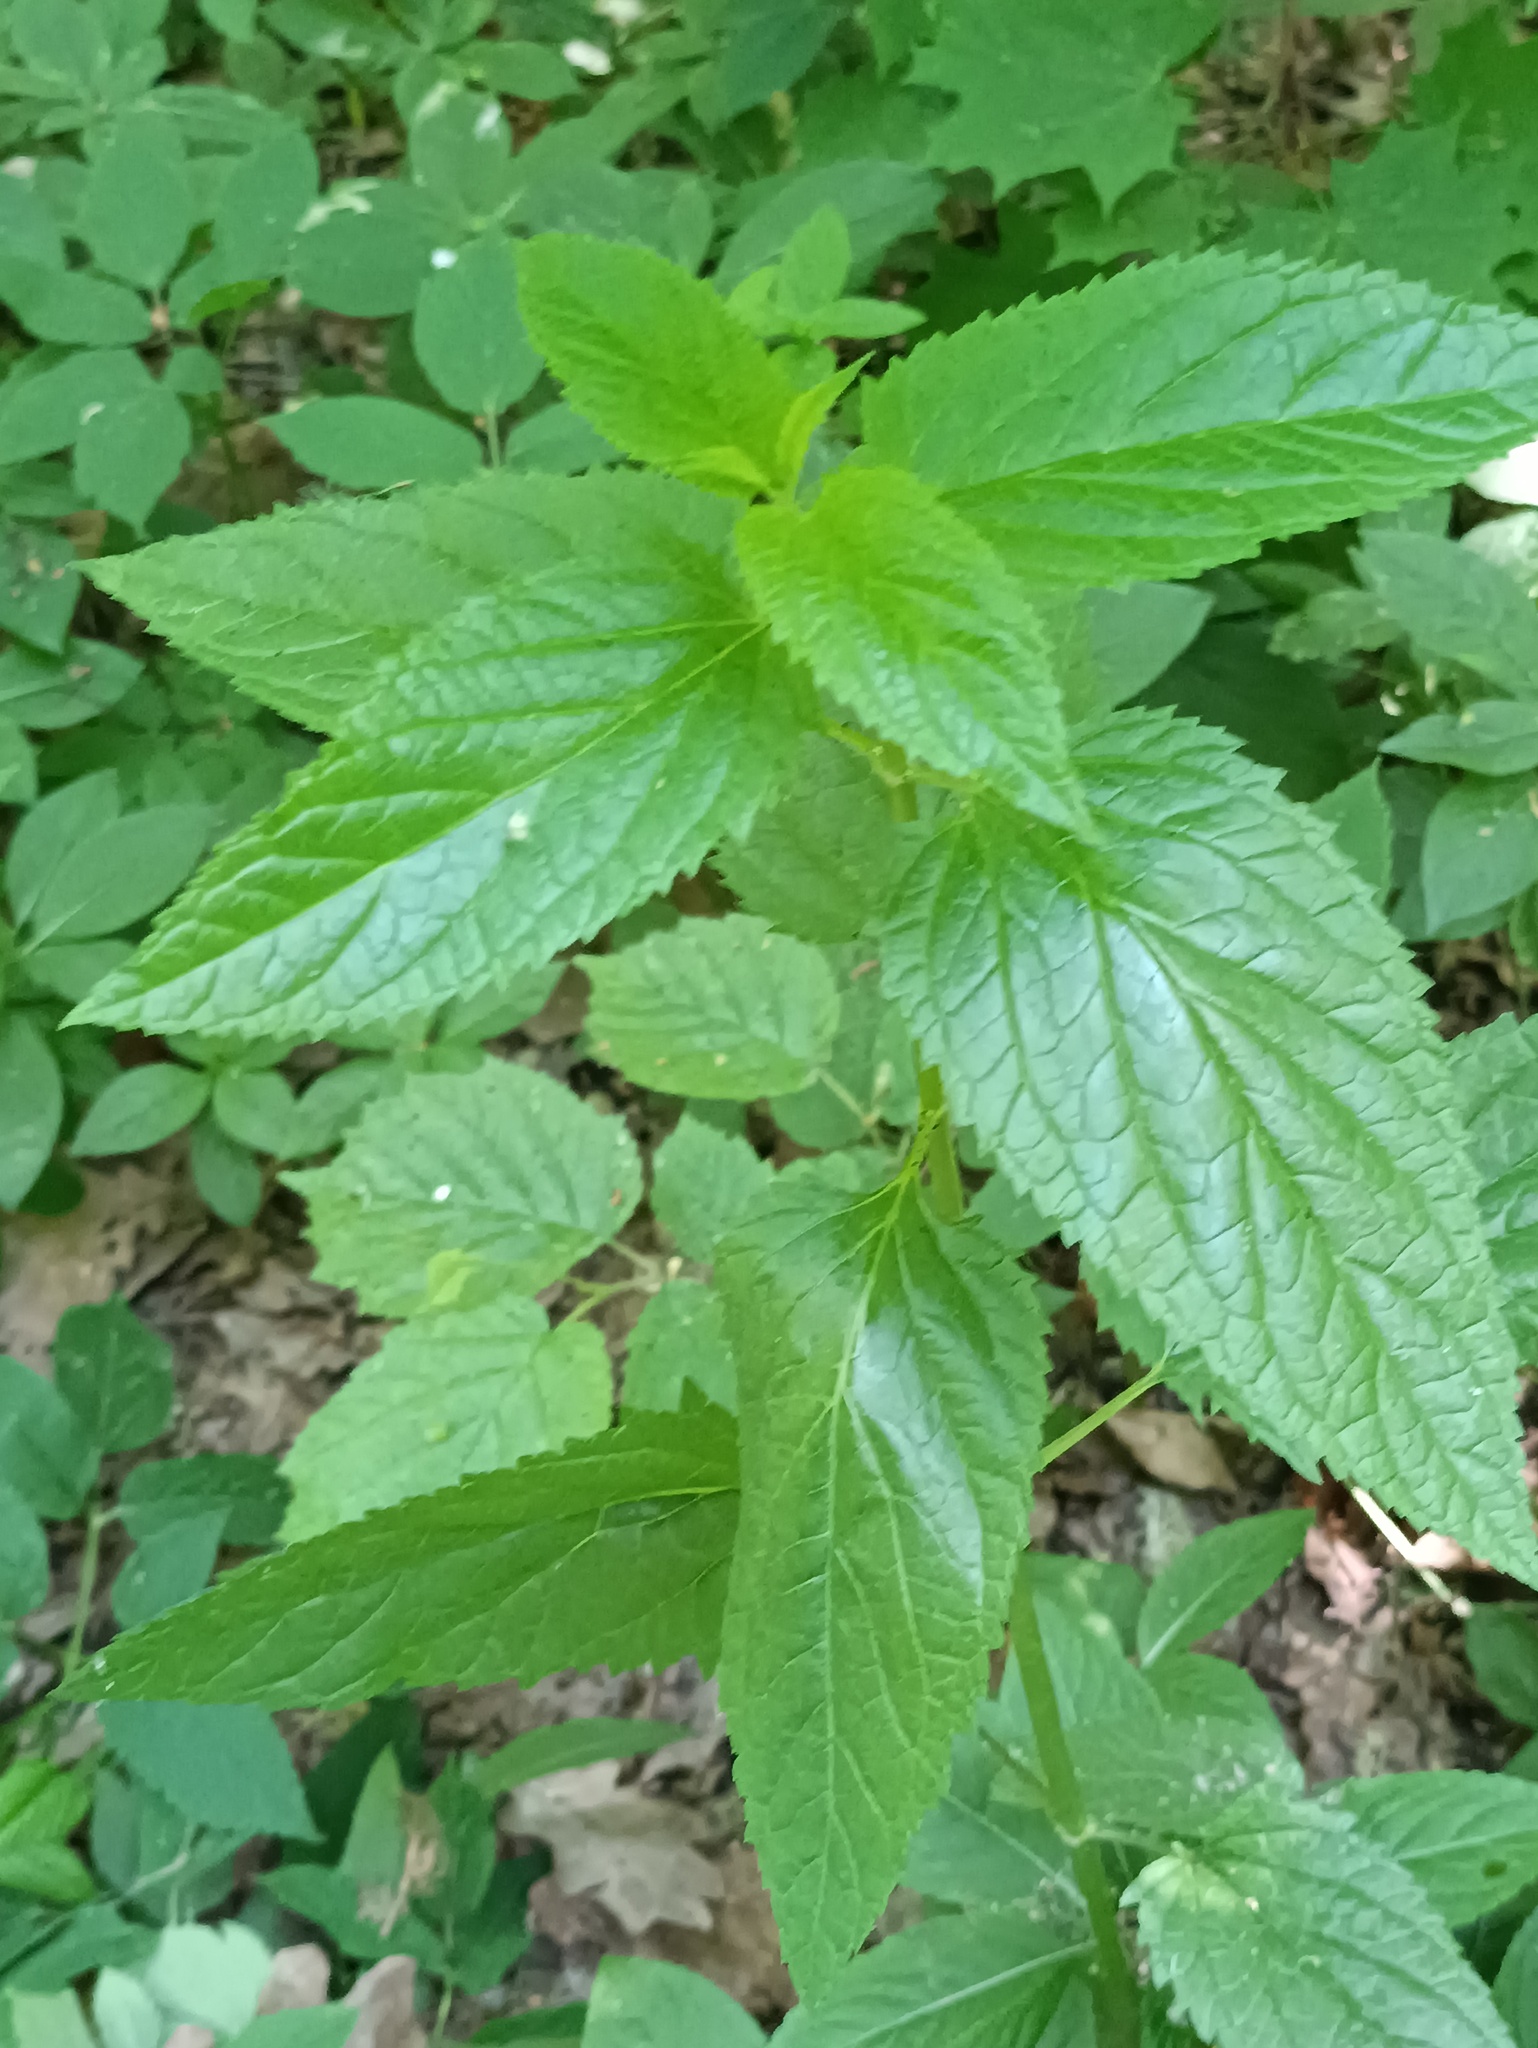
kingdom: Plantae
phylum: Tracheophyta
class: Magnoliopsida
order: Lamiales
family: Scrophulariaceae
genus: Scrophularia
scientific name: Scrophularia nodosa
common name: Common figwort
